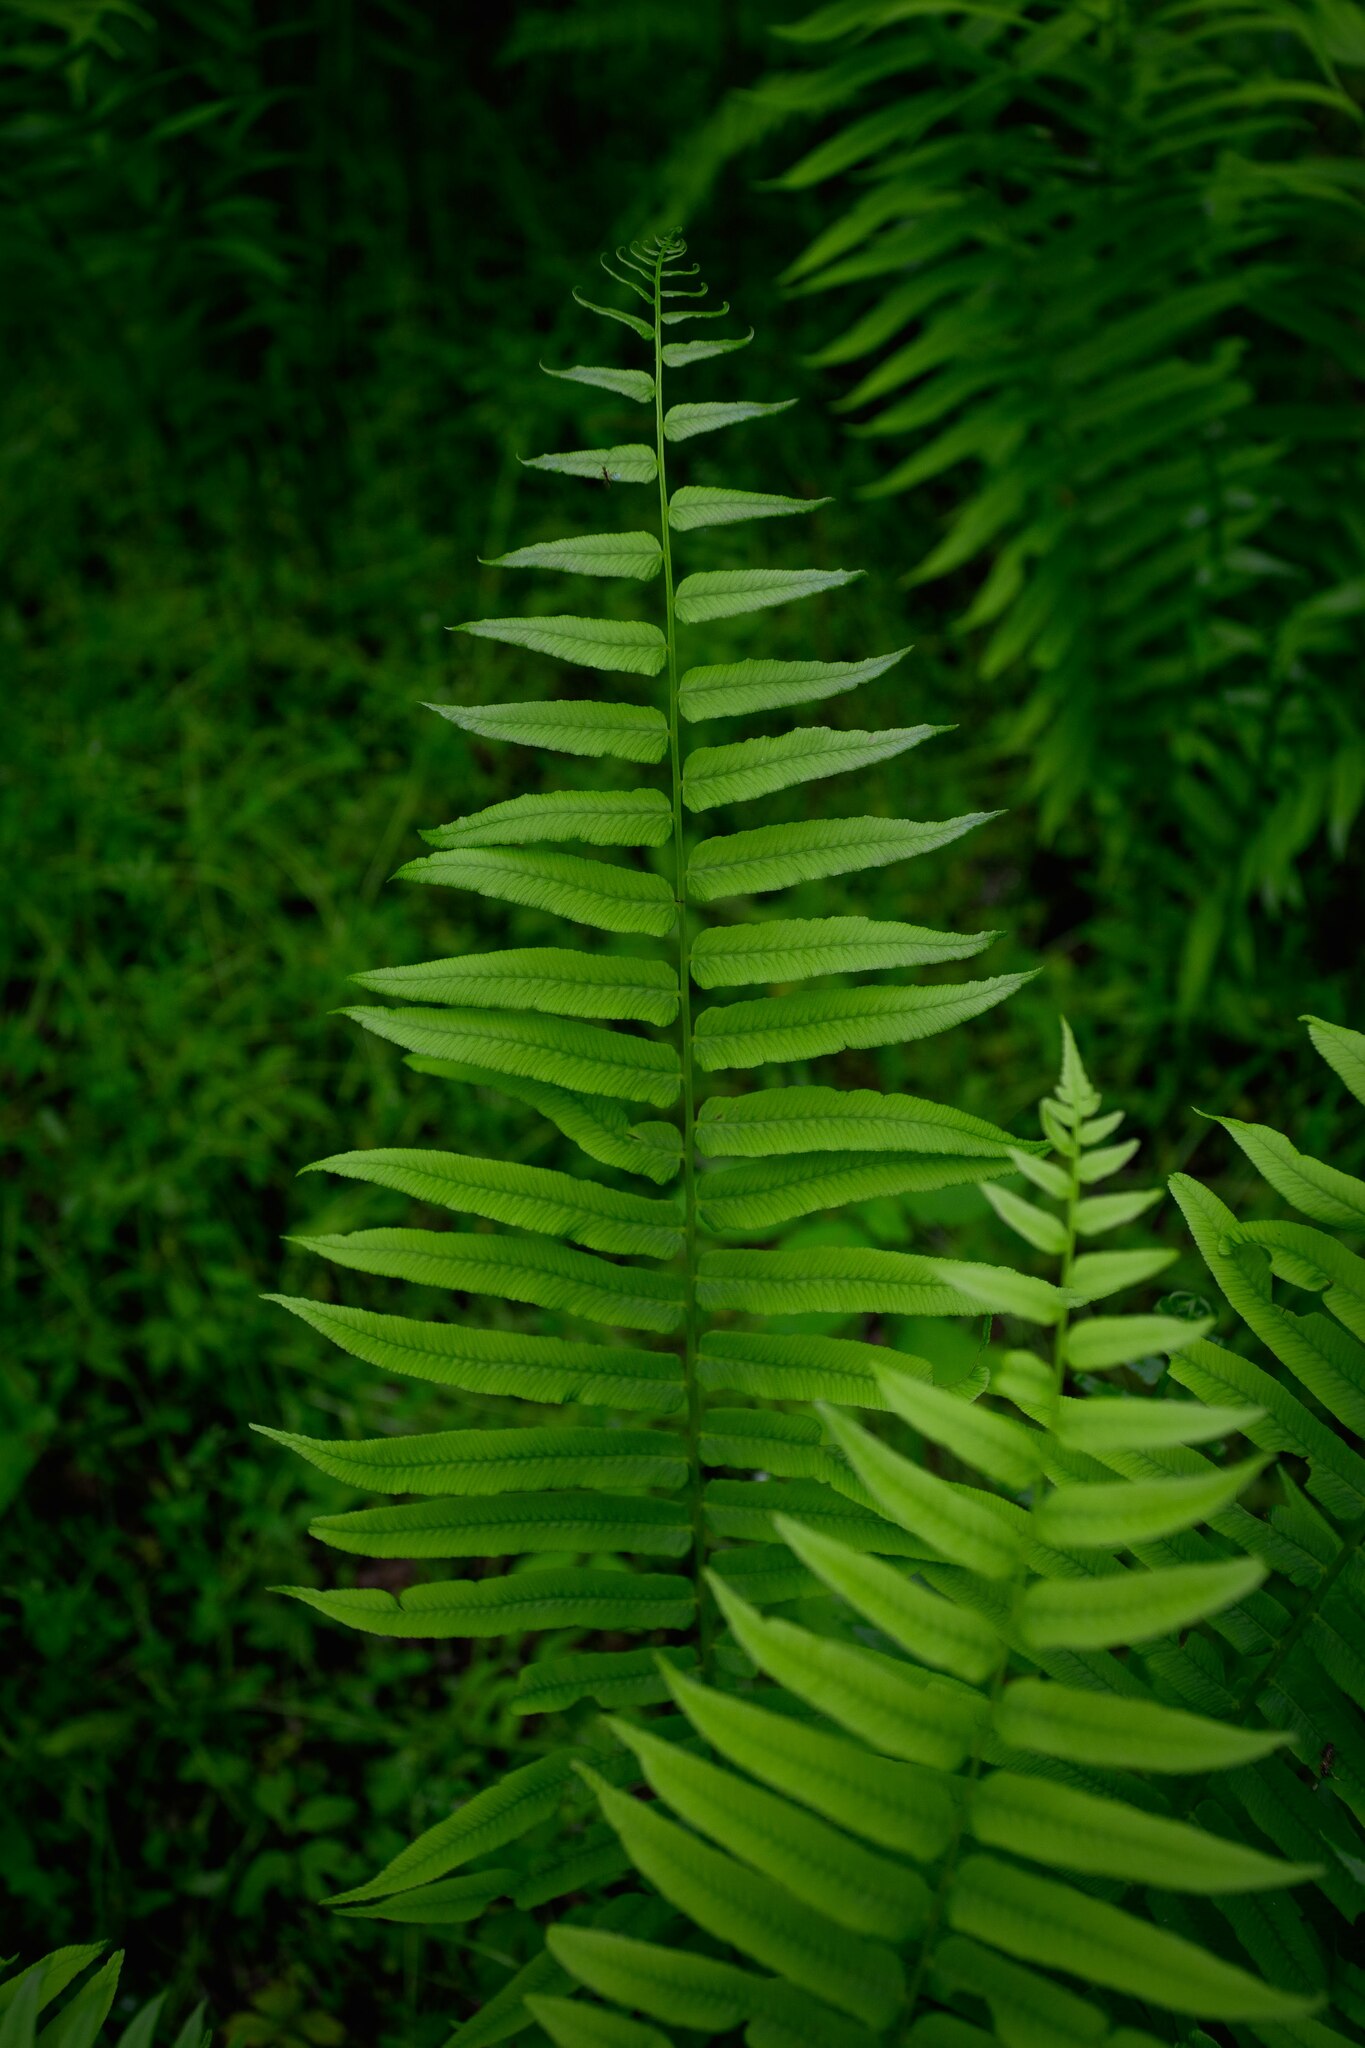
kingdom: Plantae
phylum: Tracheophyta
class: Polypodiopsida
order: Polypodiales
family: Diplaziopsidaceae
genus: Homalosorus
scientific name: Homalosorus pycnocarpos
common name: Glade fern
